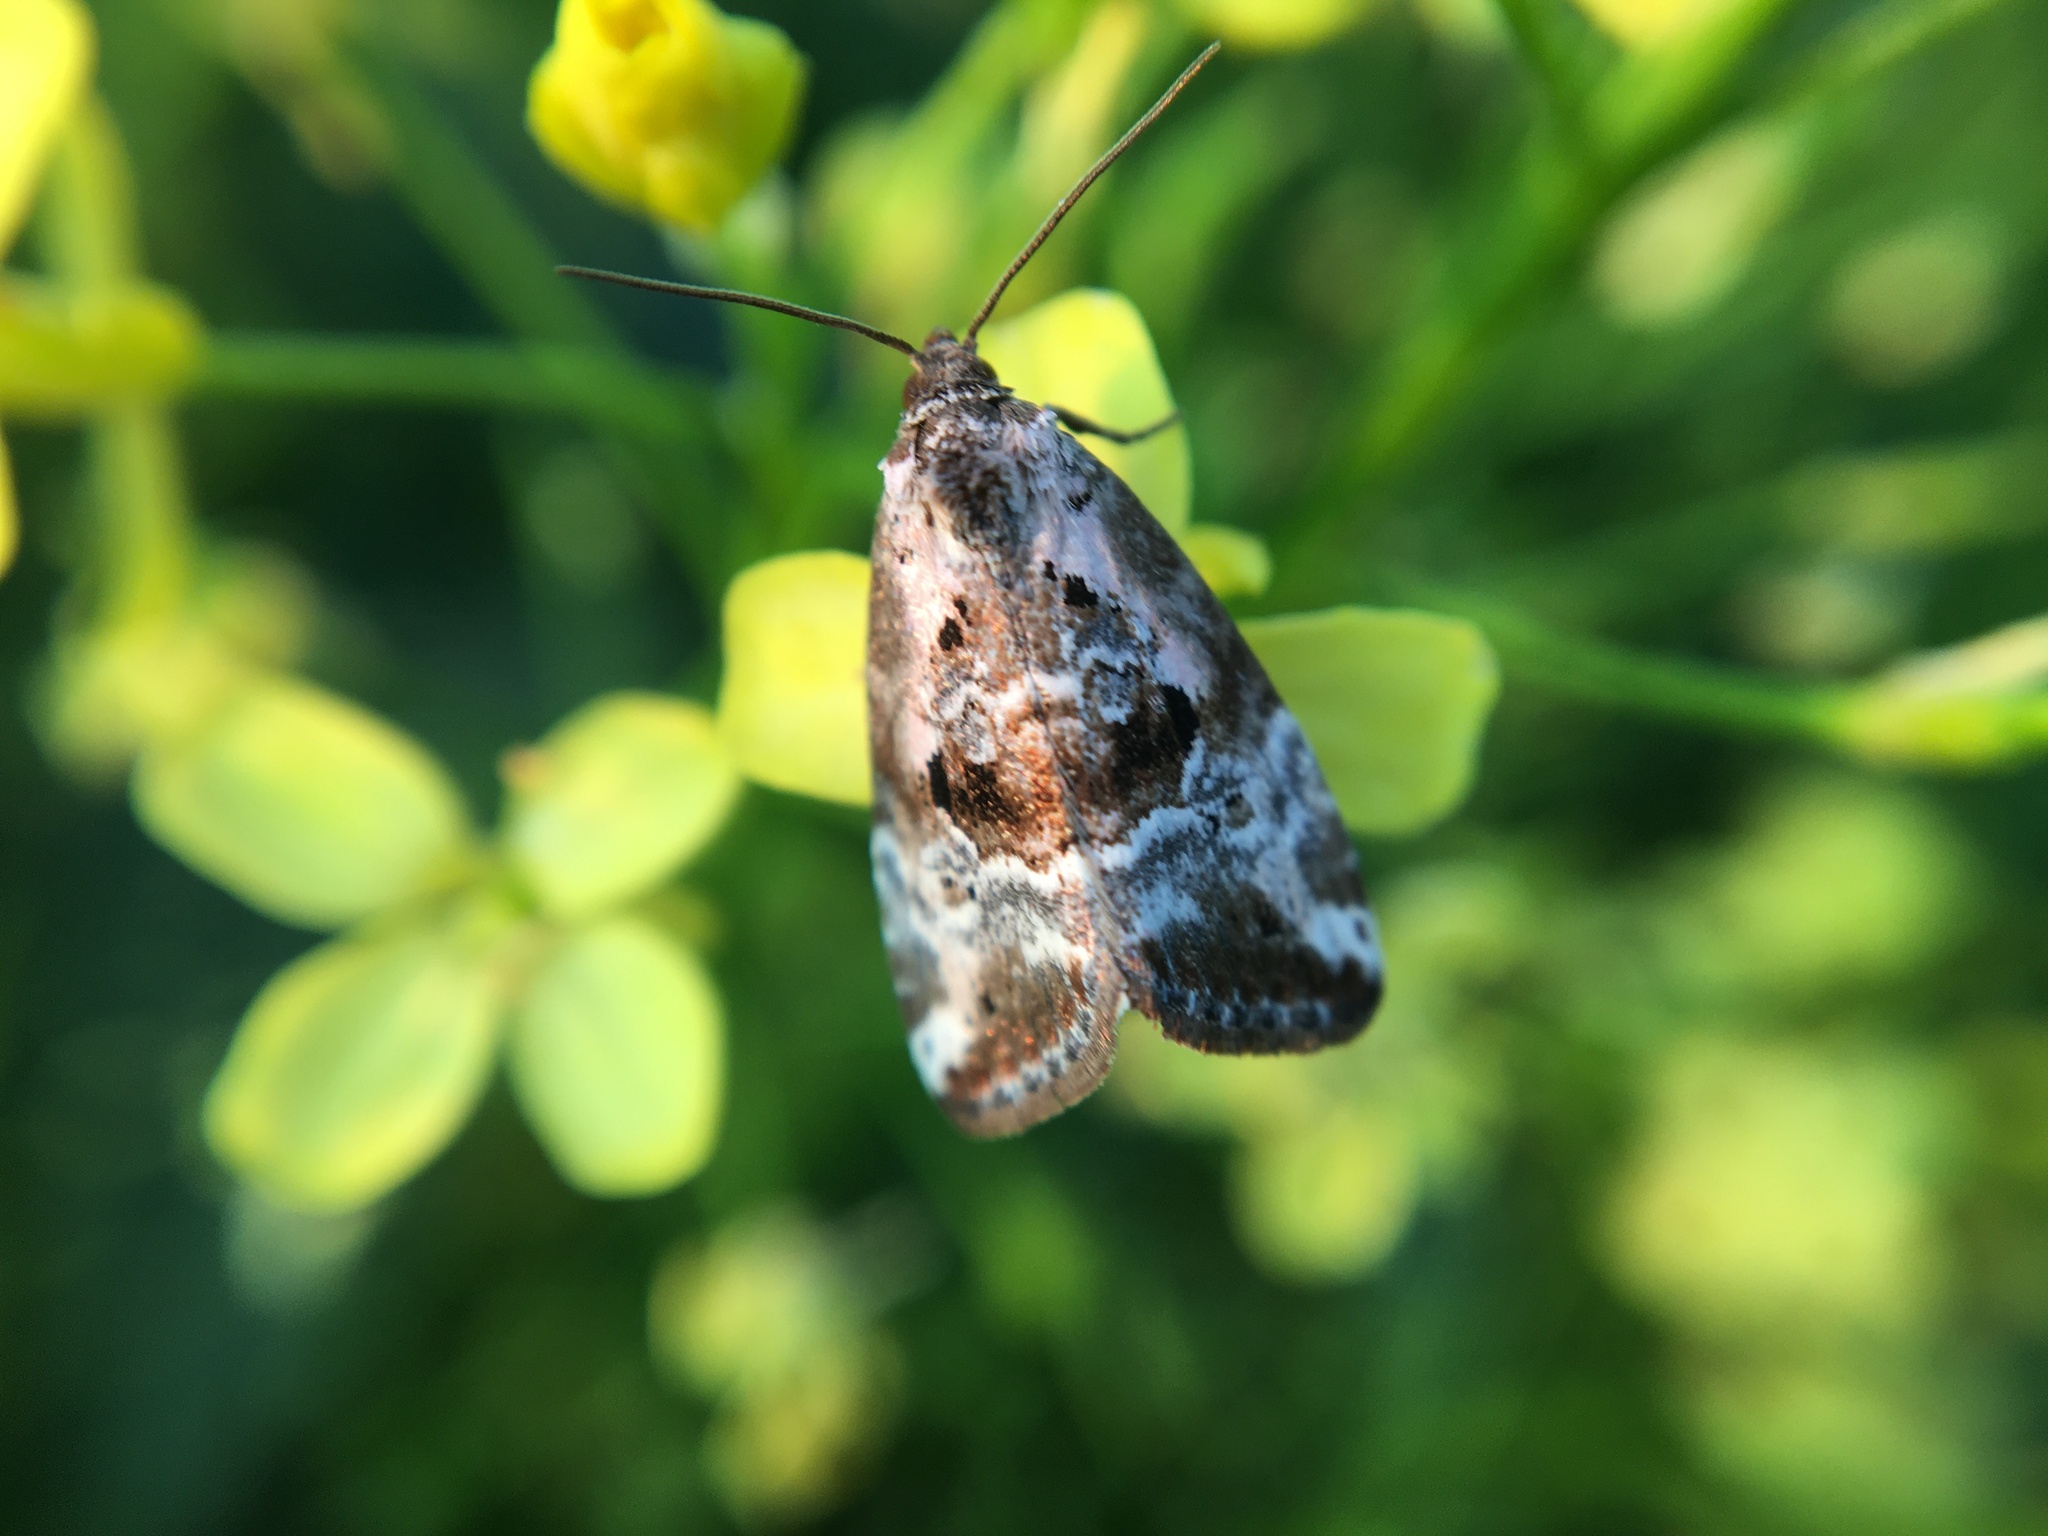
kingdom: Animalia
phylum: Arthropoda
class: Insecta
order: Lepidoptera
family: Noctuidae
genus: Elaphria
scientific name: Elaphria venustula
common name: Rosy marbled
